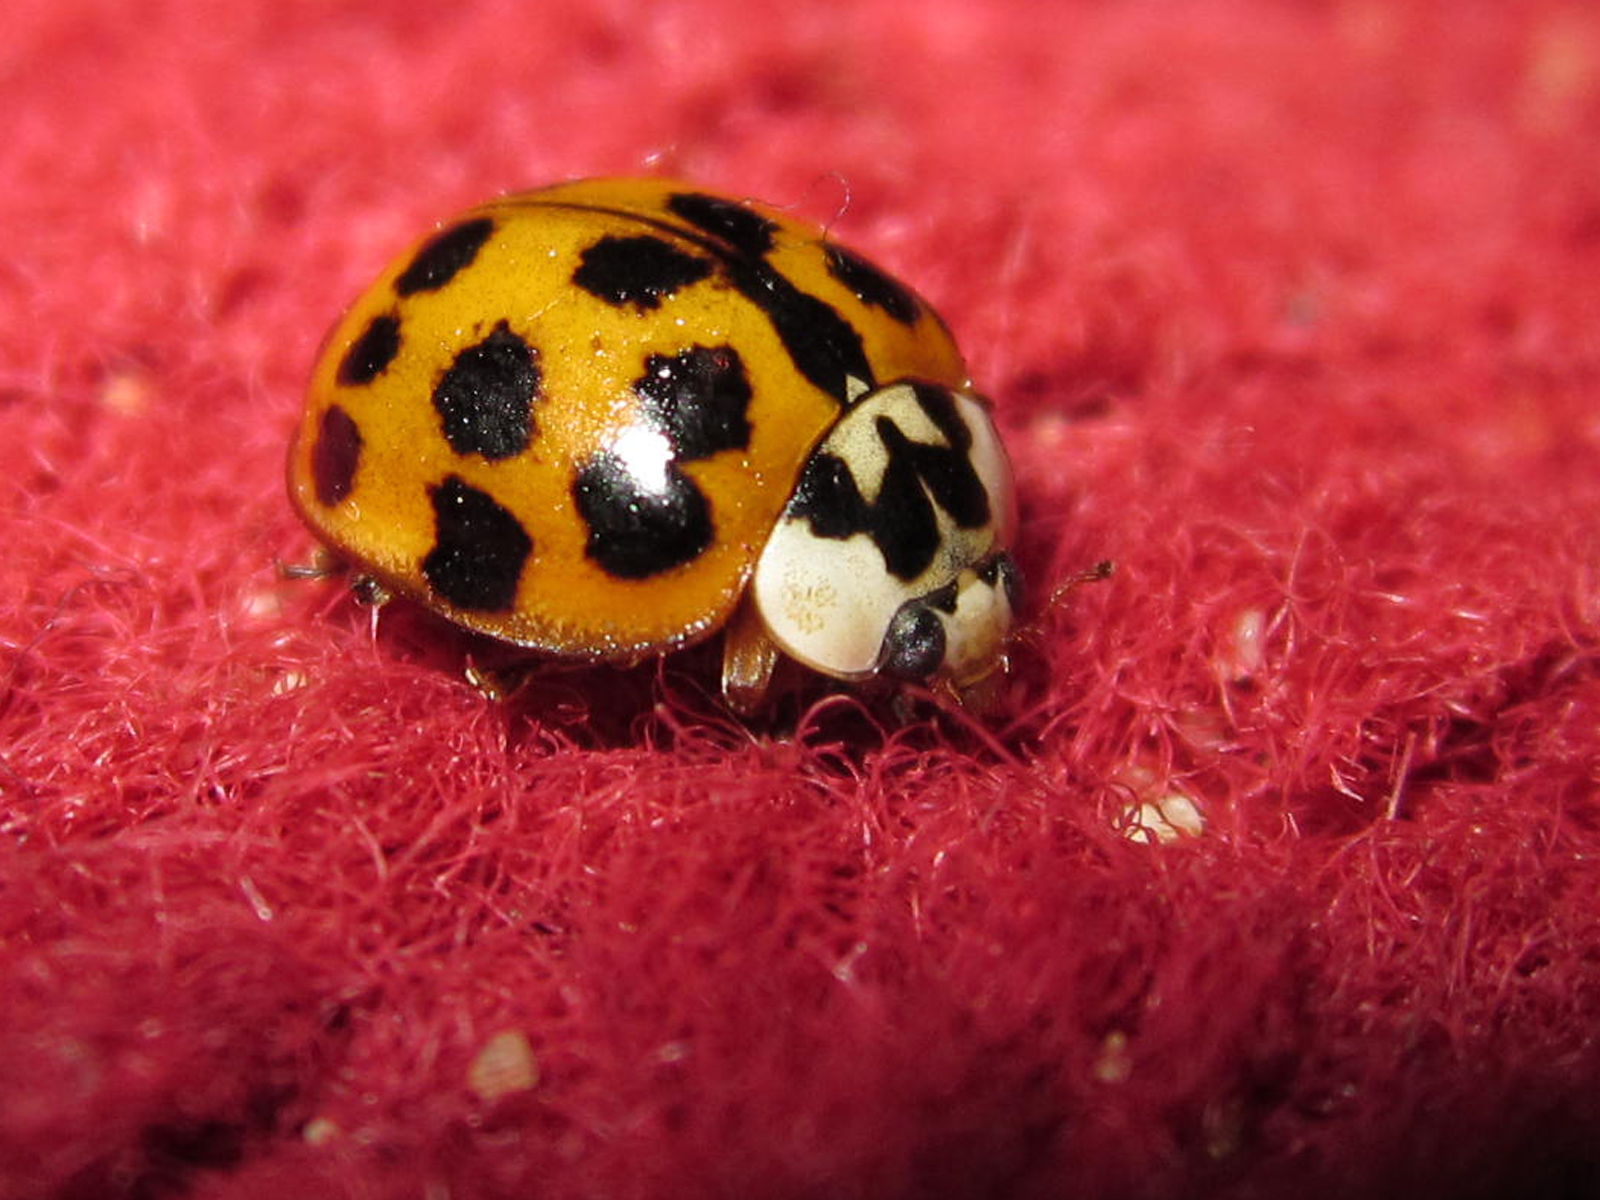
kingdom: Animalia
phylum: Arthropoda
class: Insecta
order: Coleoptera
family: Coccinellidae
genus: Harmonia
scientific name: Harmonia axyridis
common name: Harlequin ladybird
